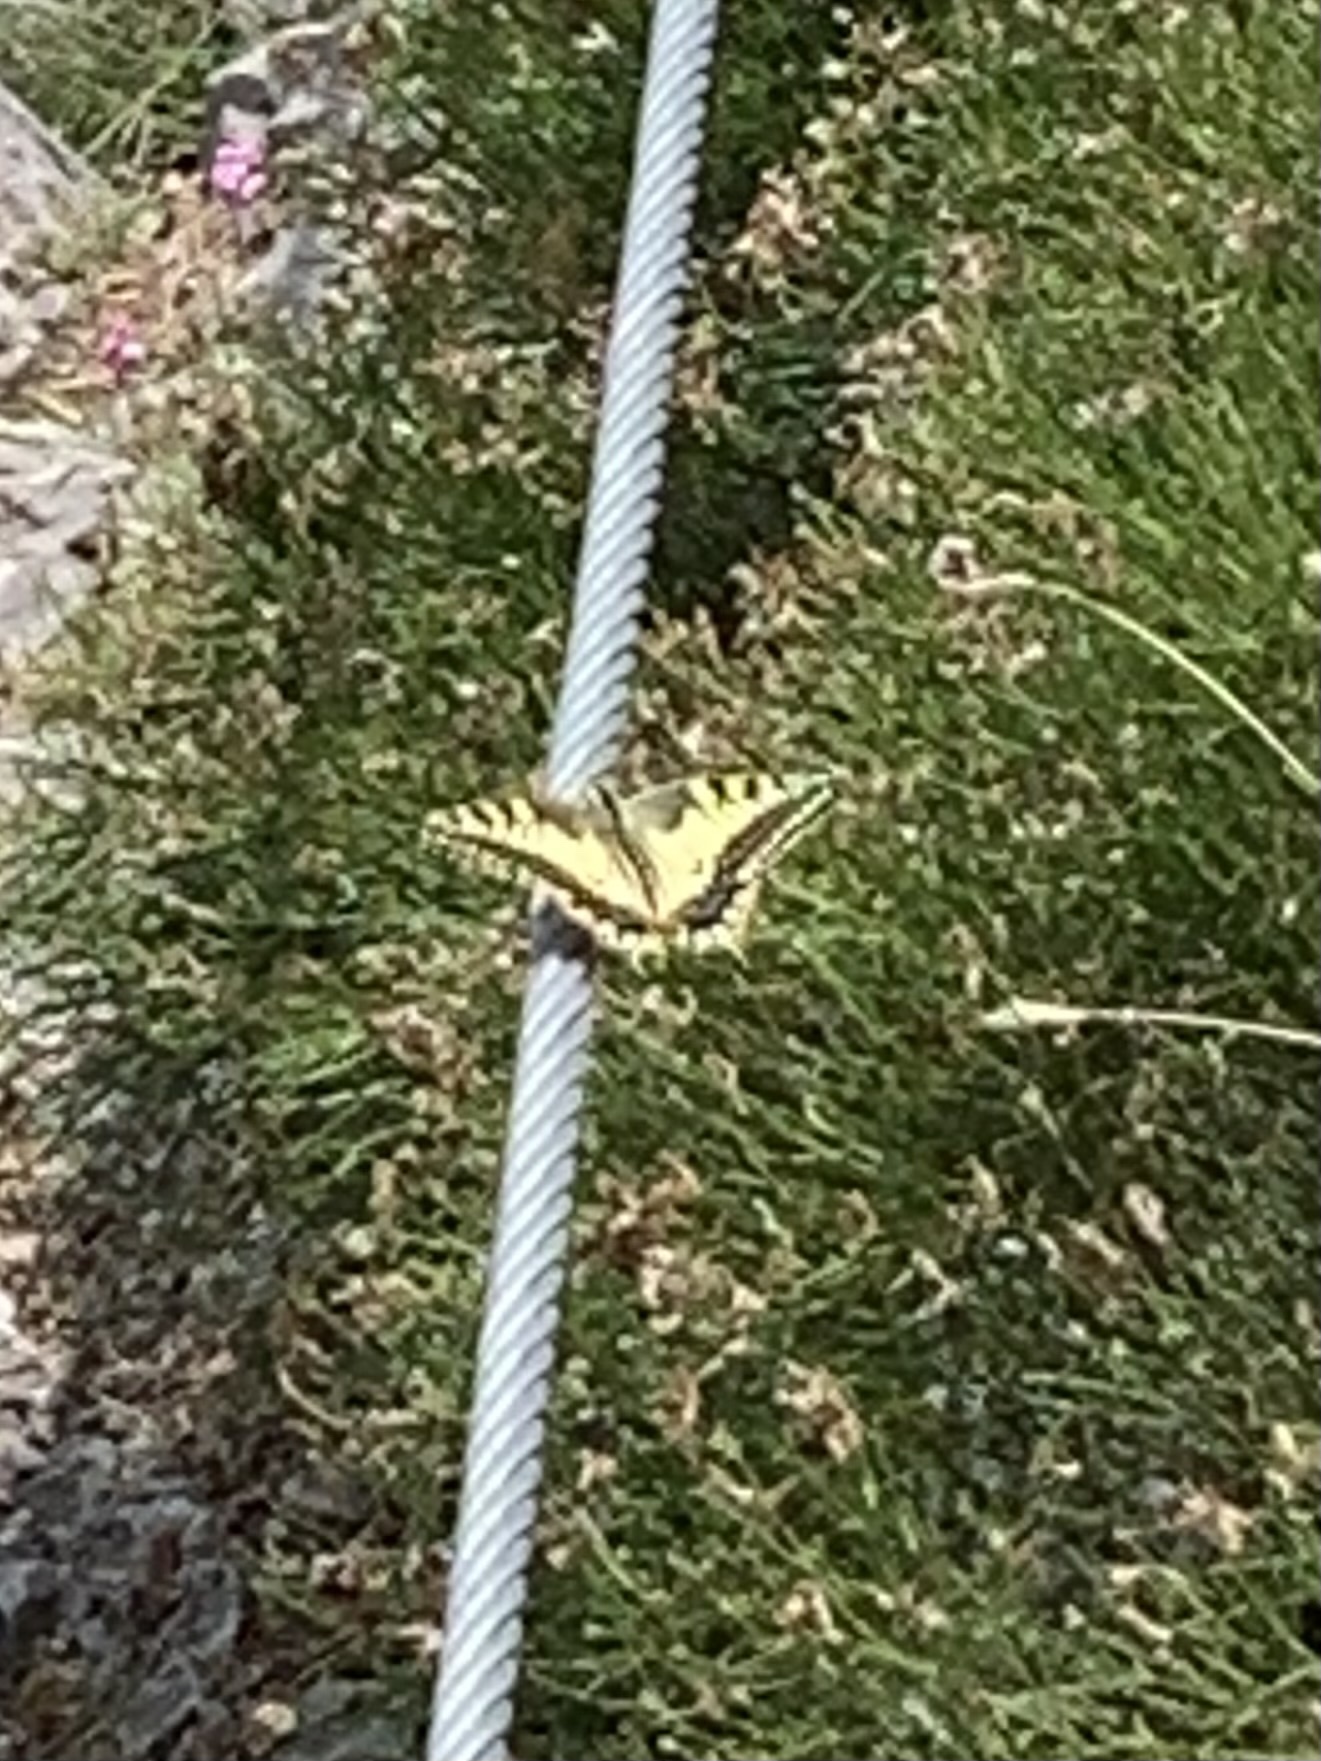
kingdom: Animalia
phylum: Arthropoda
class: Insecta
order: Lepidoptera
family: Papilionidae
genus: Papilio
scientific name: Papilio machaon
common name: Swallowtail
